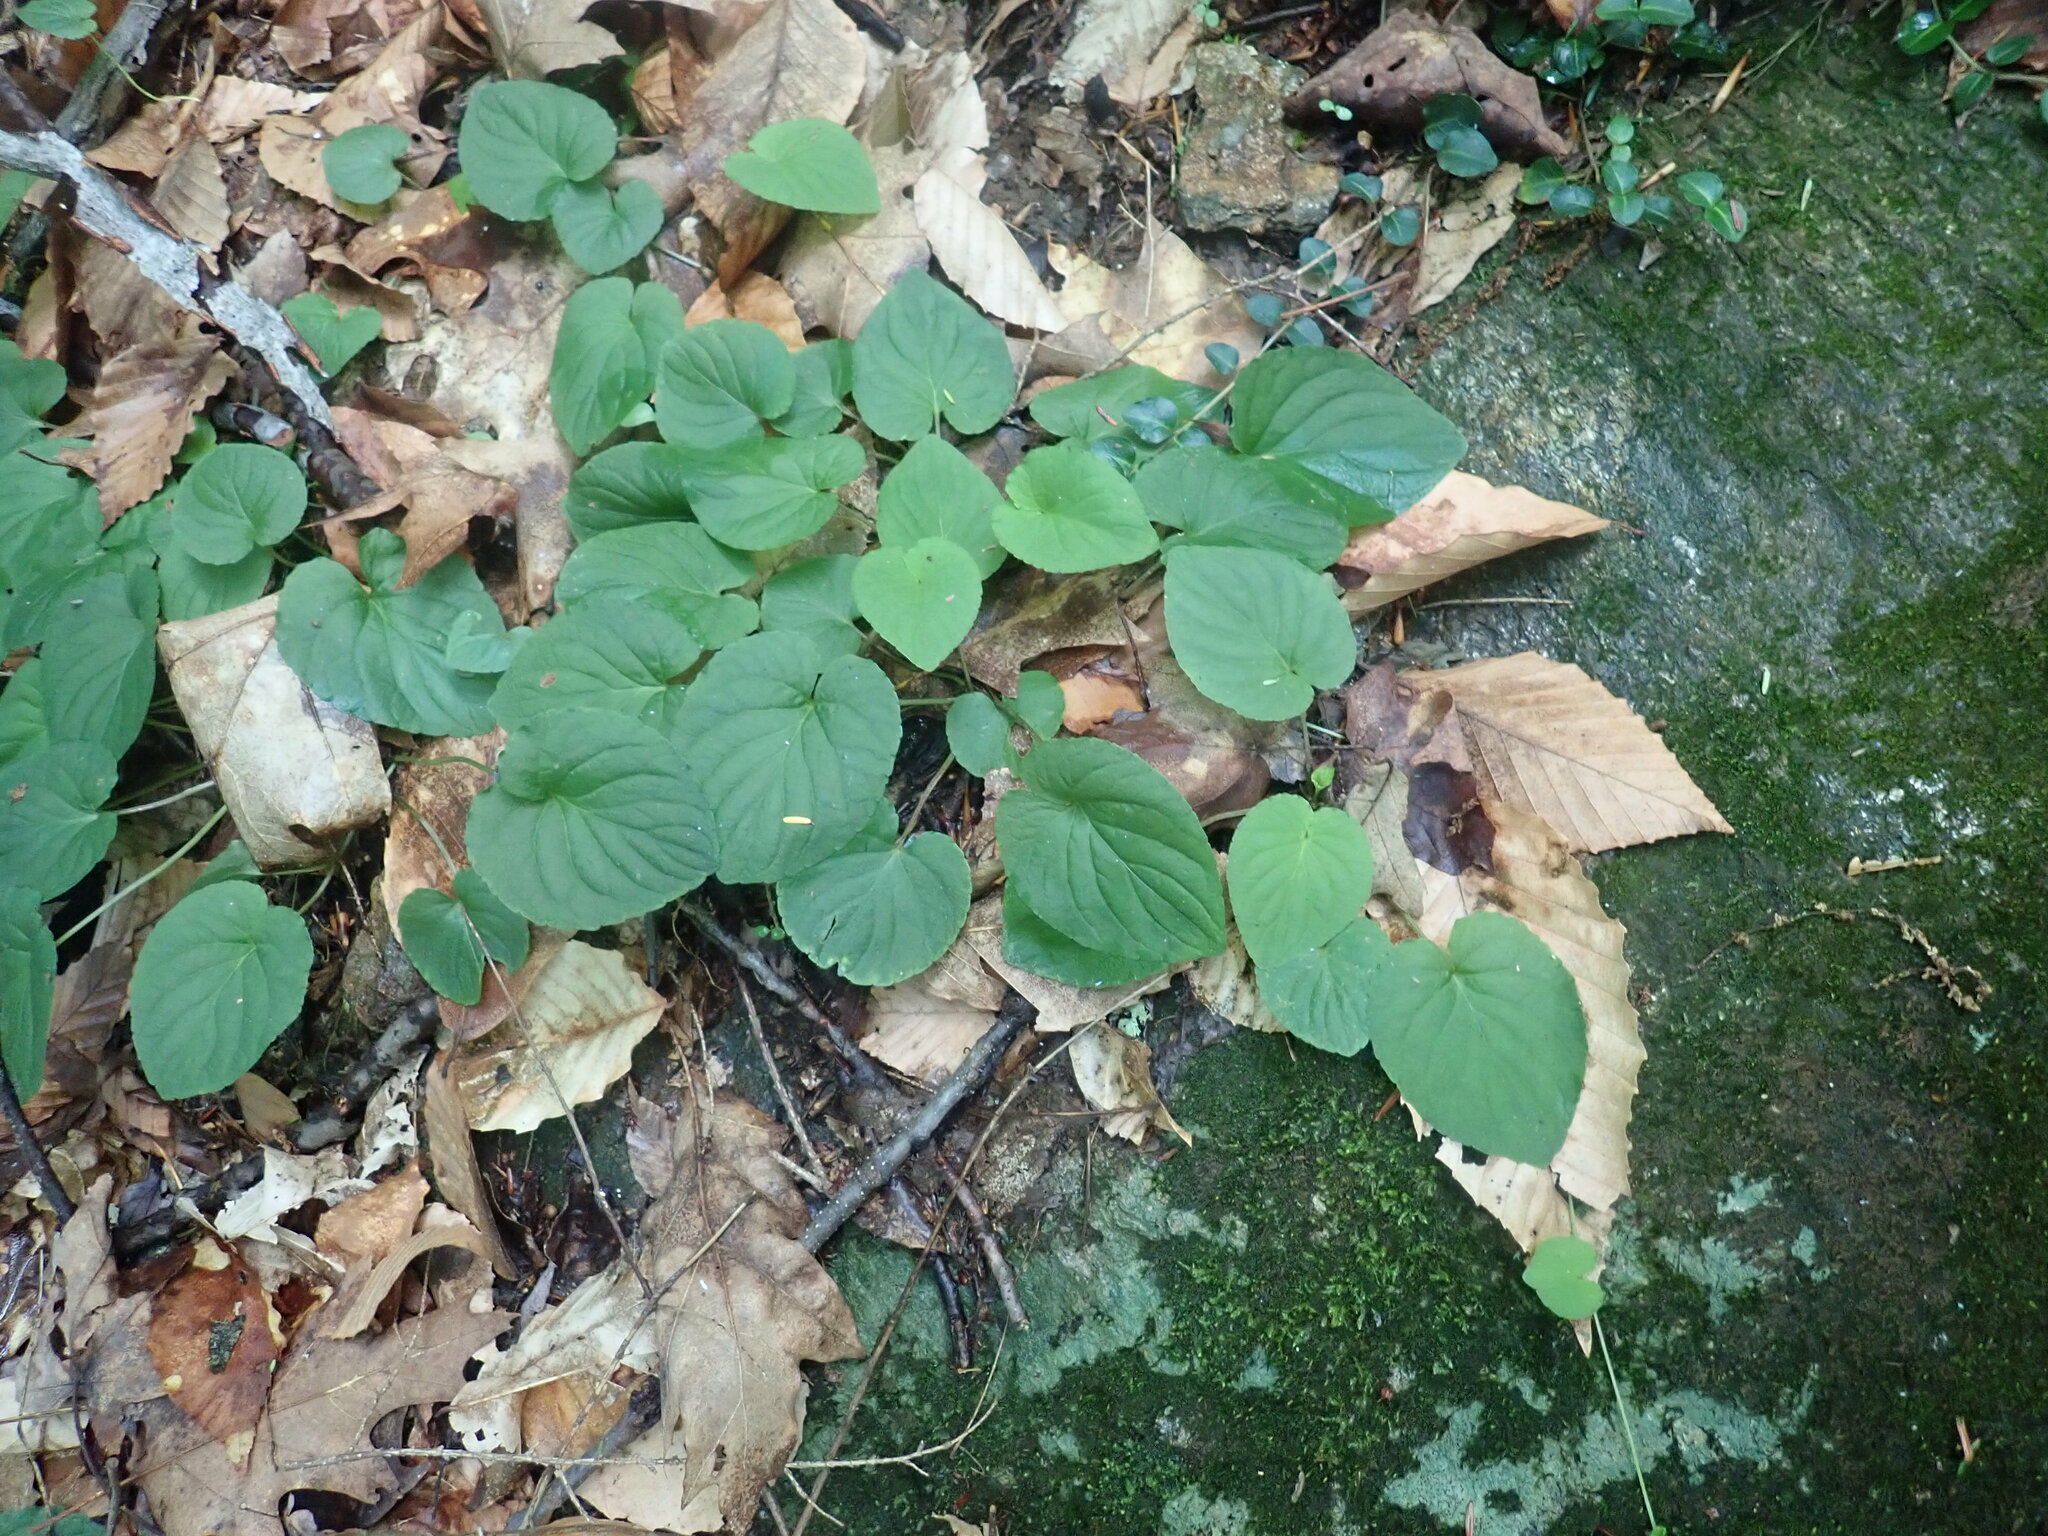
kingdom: Plantae
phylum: Tracheophyta
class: Magnoliopsida
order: Malpighiales
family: Violaceae
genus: Viola
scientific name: Viola rotundifolia
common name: Early yellow violet
